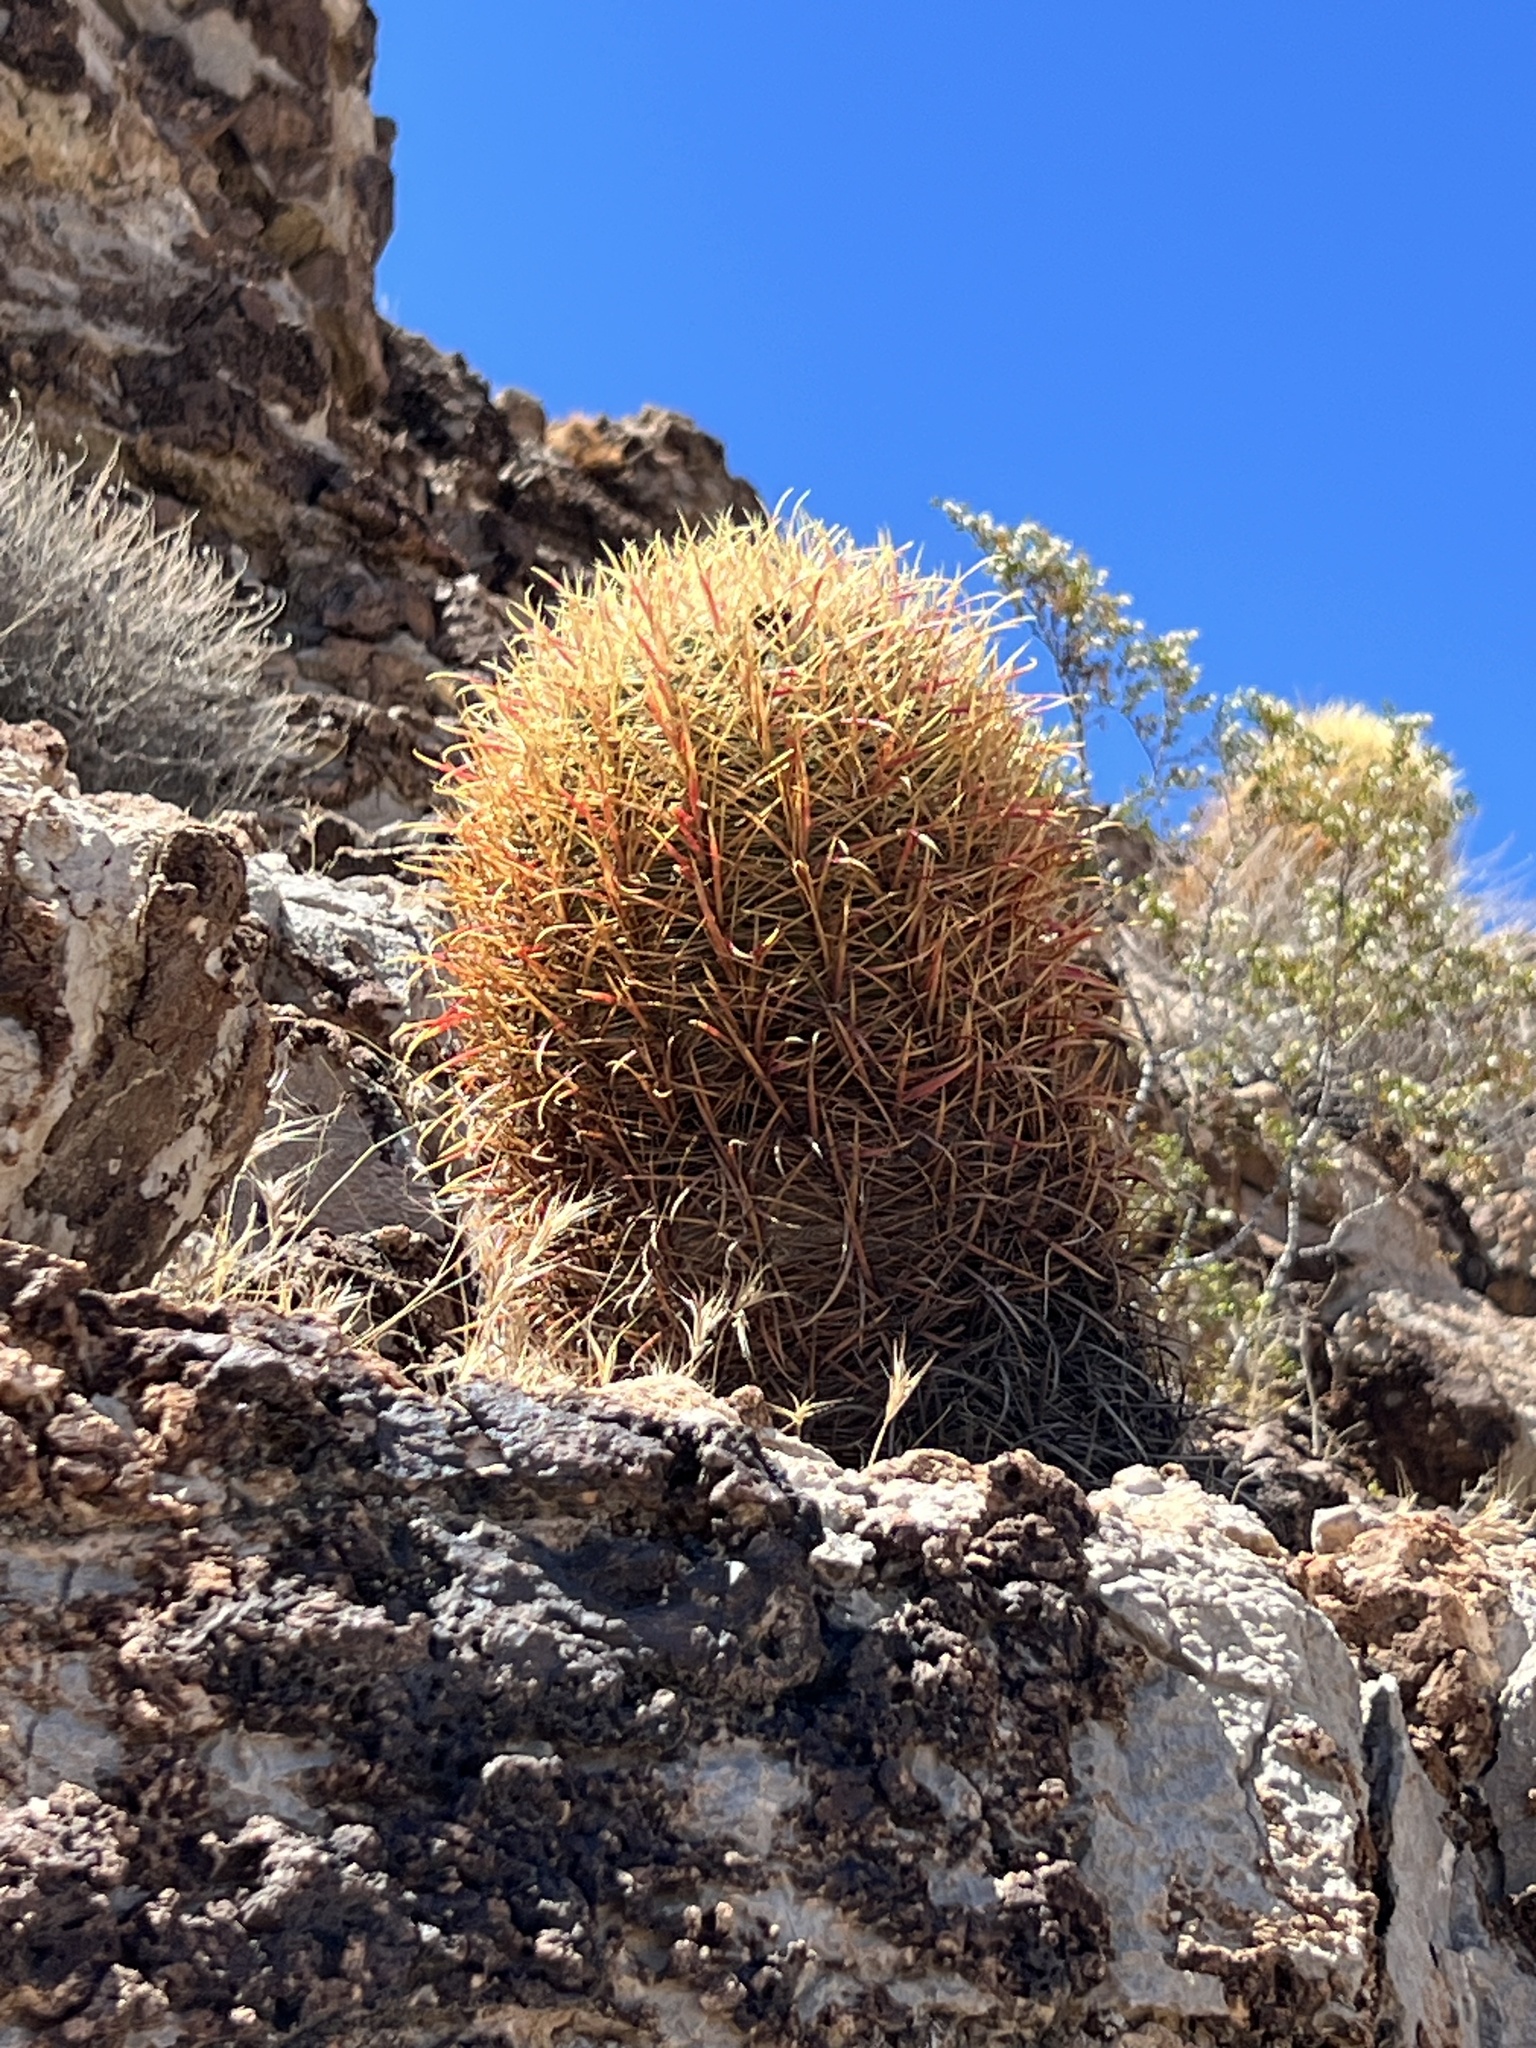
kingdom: Plantae
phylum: Tracheophyta
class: Magnoliopsida
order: Caryophyllales
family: Cactaceae
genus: Ferocactus
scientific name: Ferocactus cylindraceus
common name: California barrel cactus
